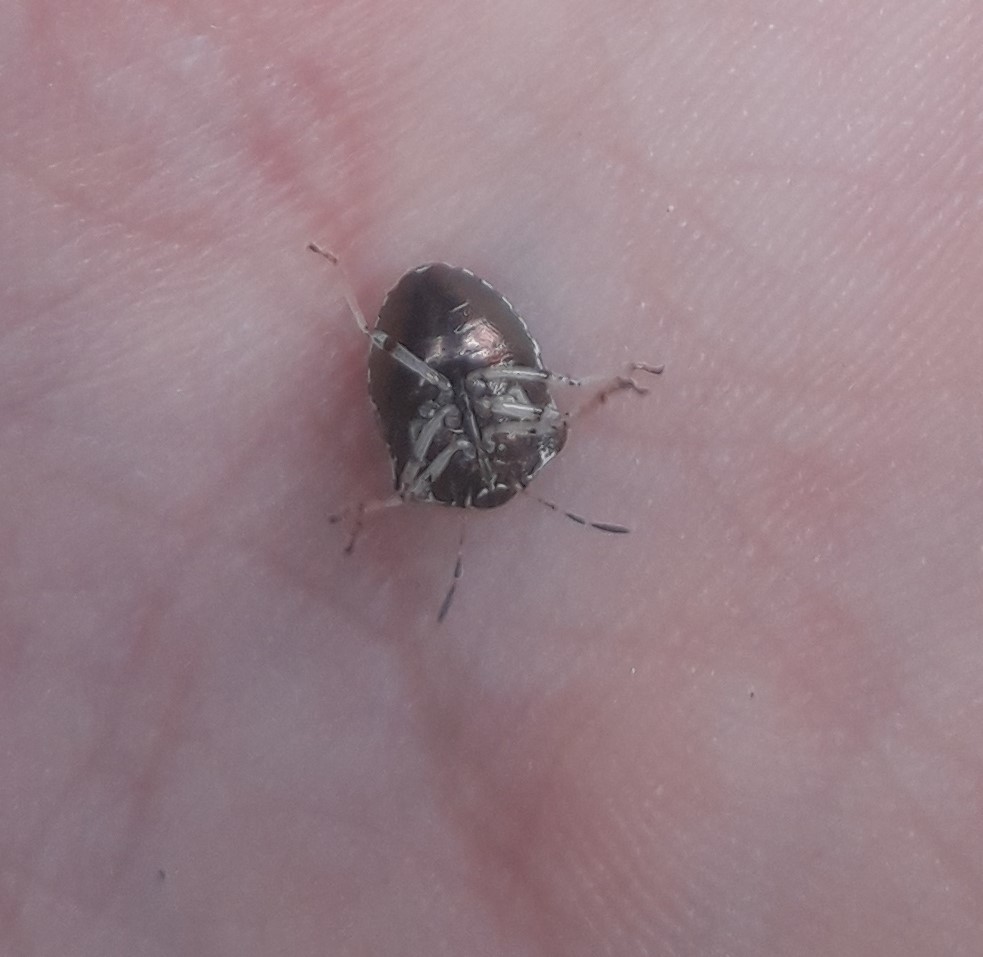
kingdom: Animalia
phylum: Arthropoda
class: Insecta
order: Hemiptera
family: Pentatomidae
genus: Eysarcoris
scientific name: Eysarcoris venustissimus
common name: Woundwort shieldbug
